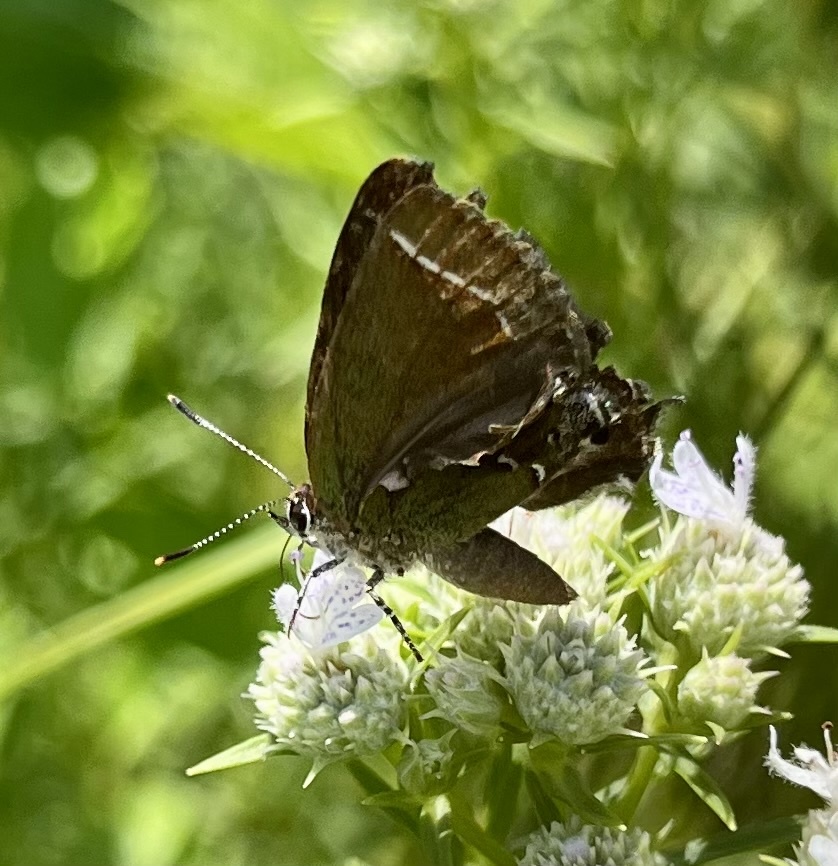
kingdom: Animalia
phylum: Arthropoda
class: Insecta
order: Lepidoptera
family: Lycaenidae
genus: Mitoura
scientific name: Mitoura gryneus
